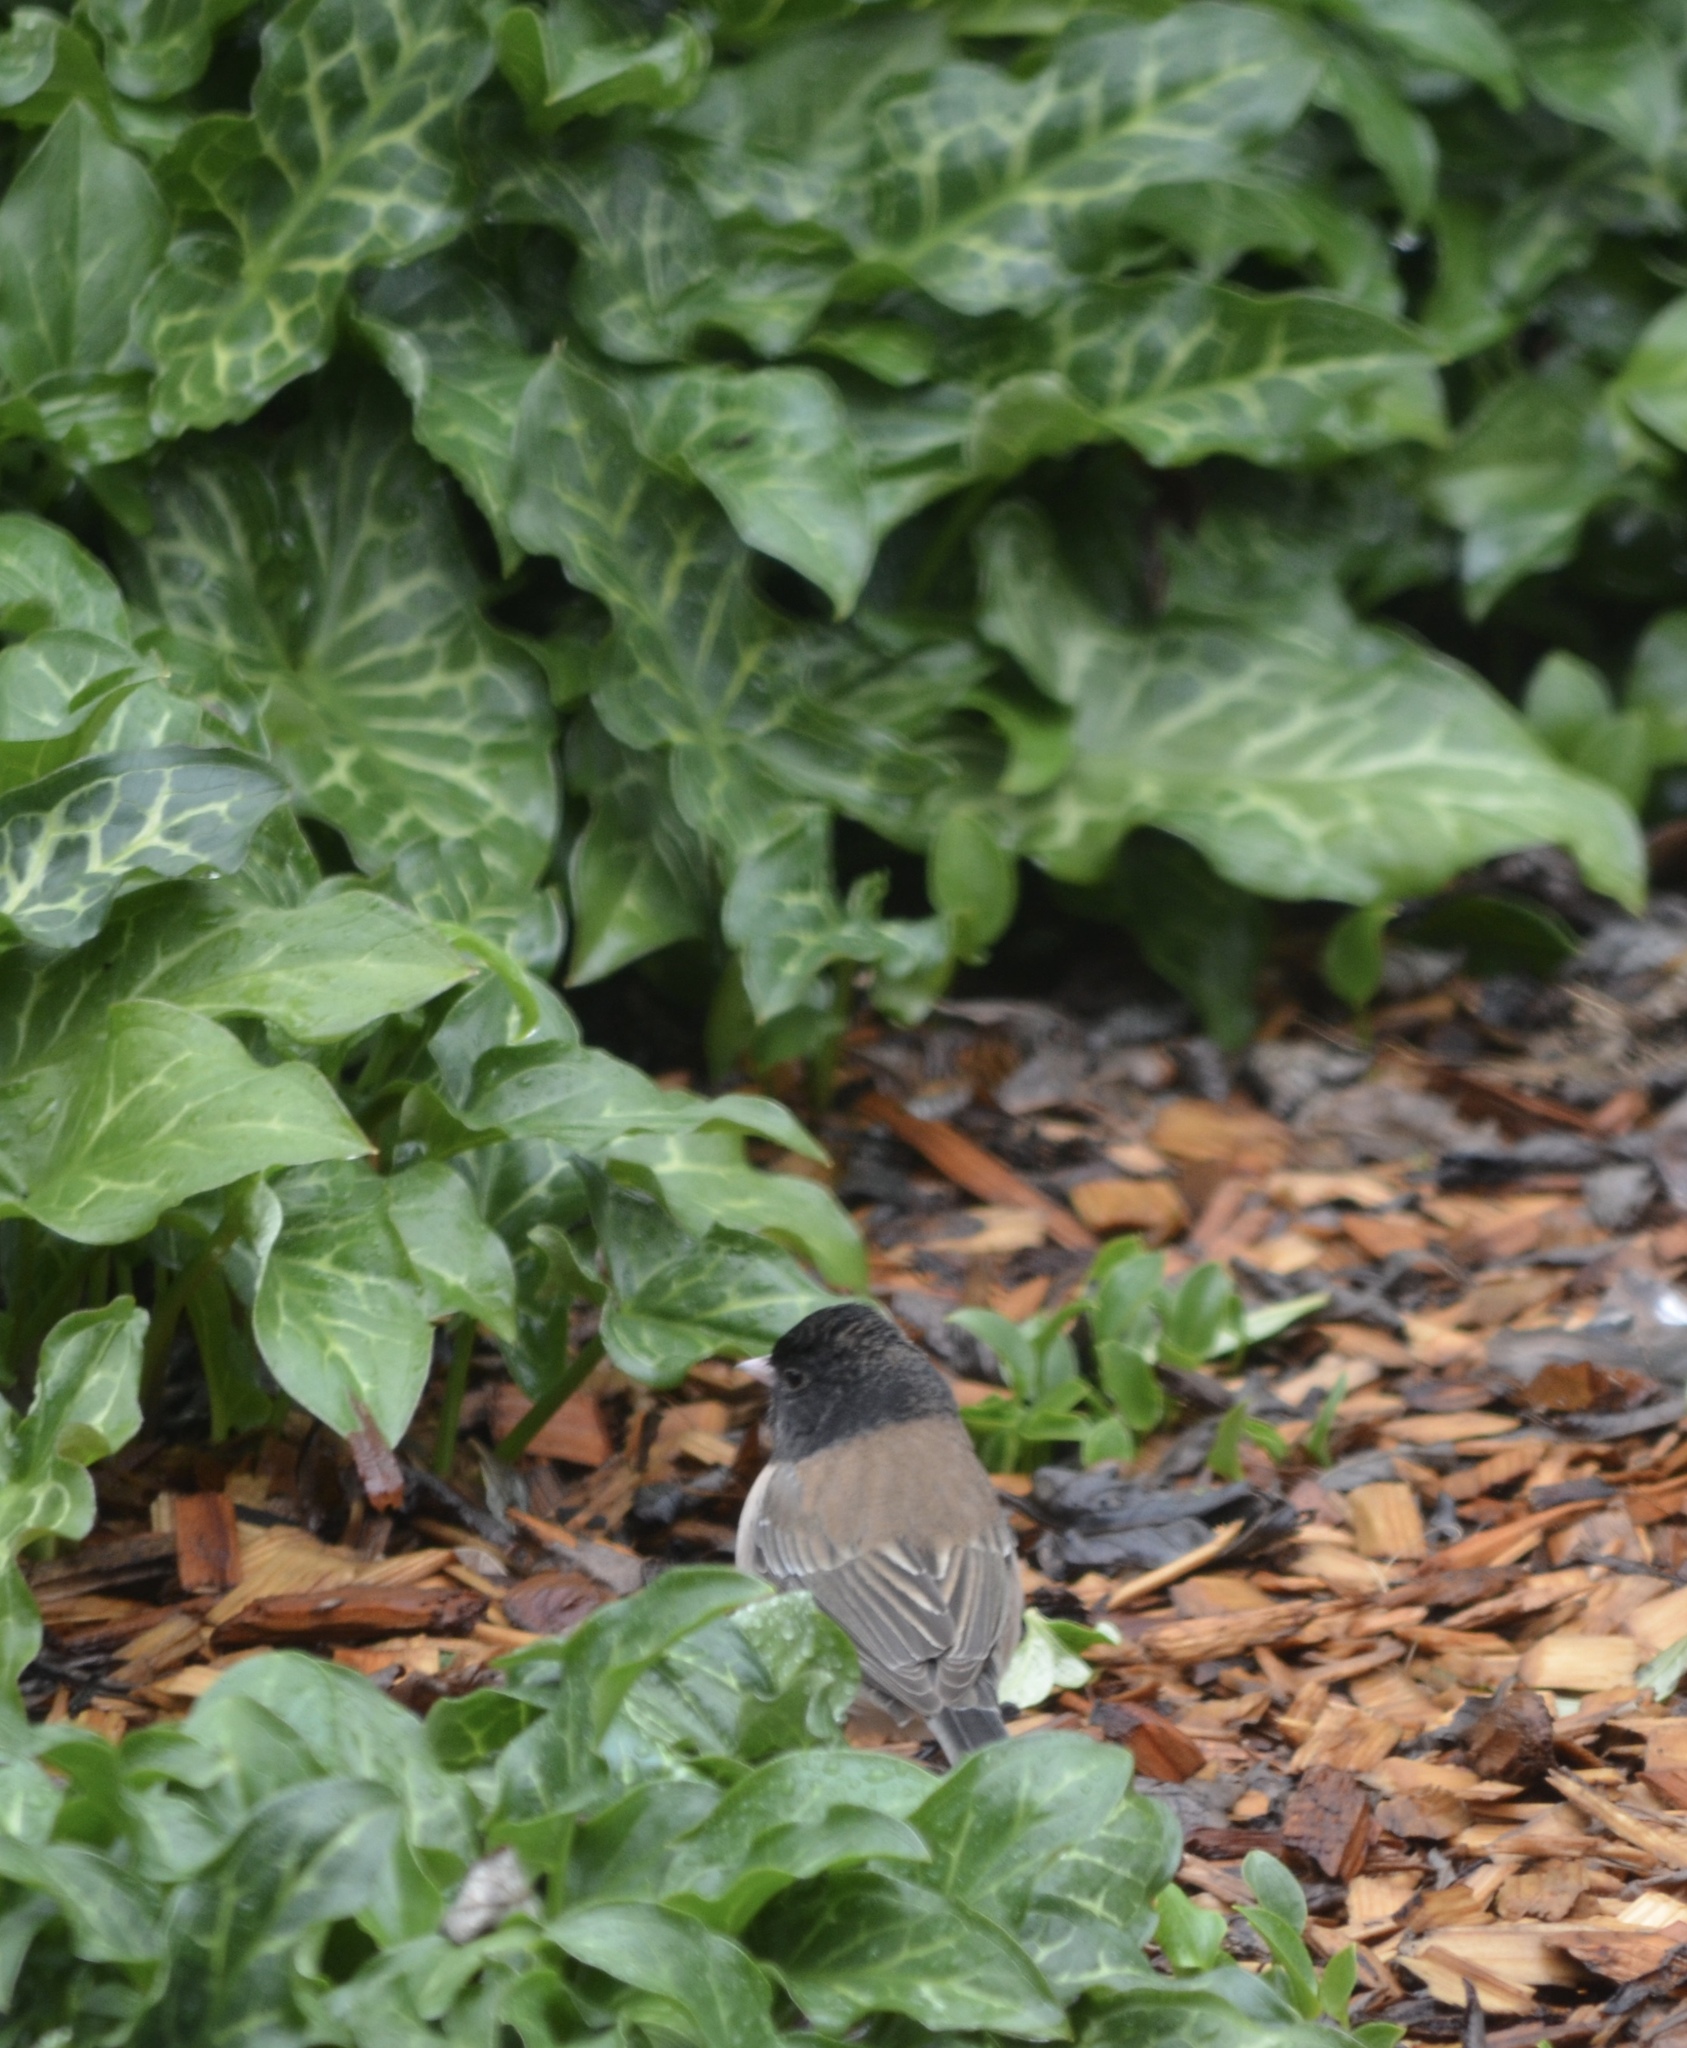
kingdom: Animalia
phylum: Chordata
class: Aves
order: Passeriformes
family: Passerellidae
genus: Junco
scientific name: Junco hyemalis
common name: Dark-eyed junco
